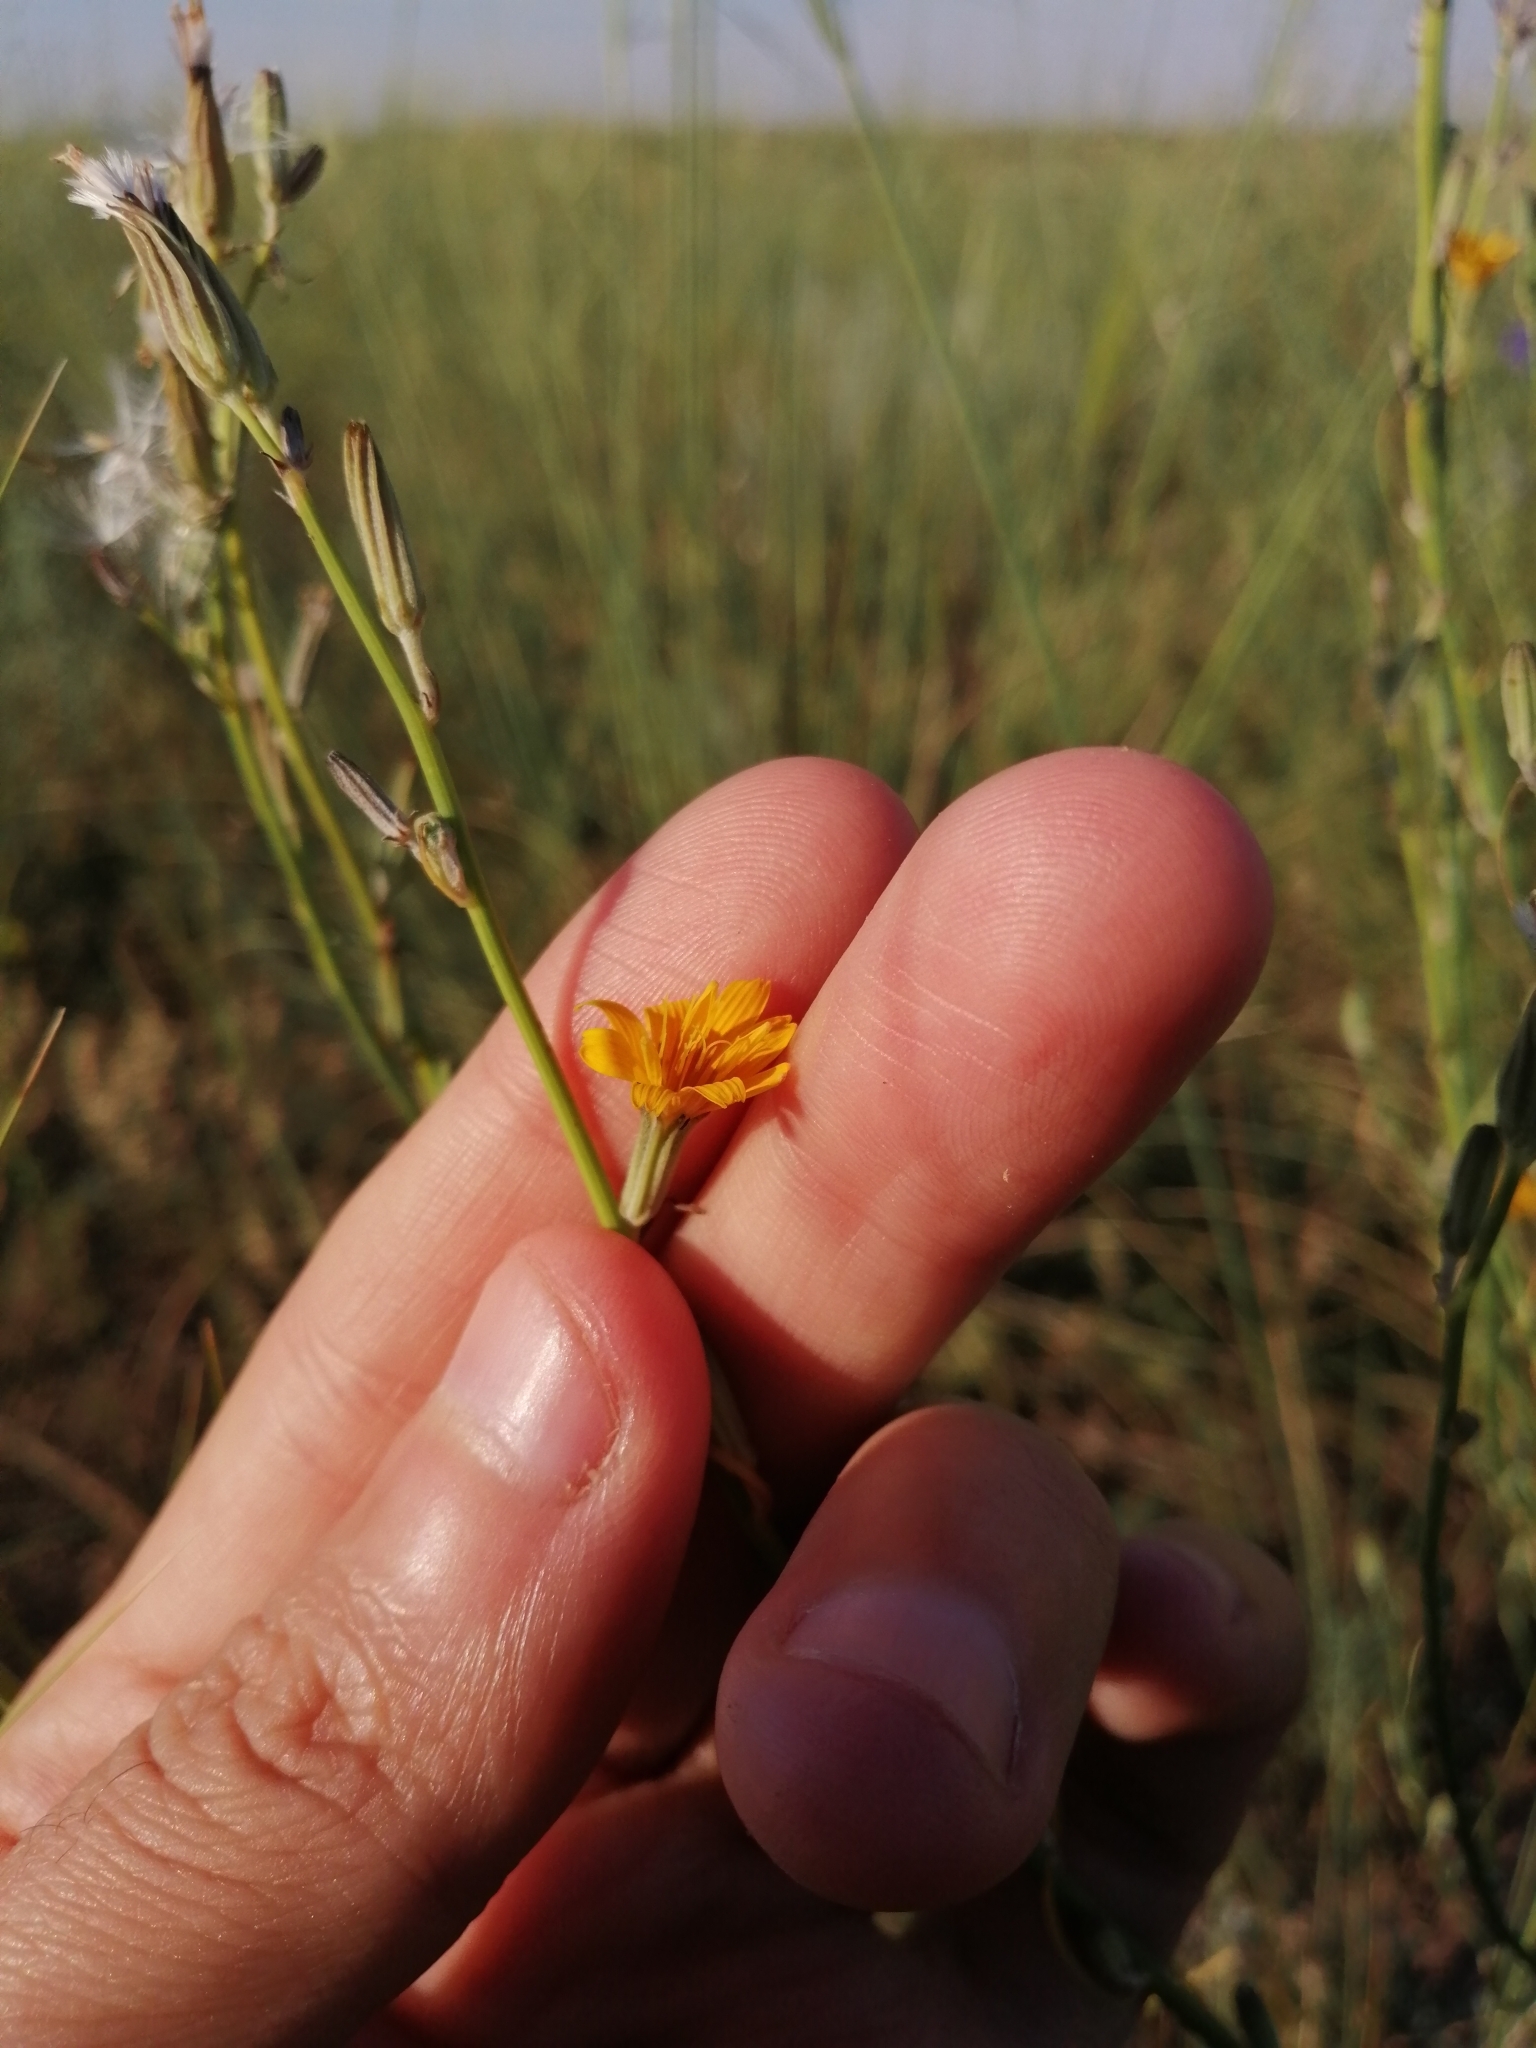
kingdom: Plantae
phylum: Tracheophyta
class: Magnoliopsida
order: Asterales
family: Asteraceae
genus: Chondrilla
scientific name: Chondrilla juncea
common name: Skeleton weed
